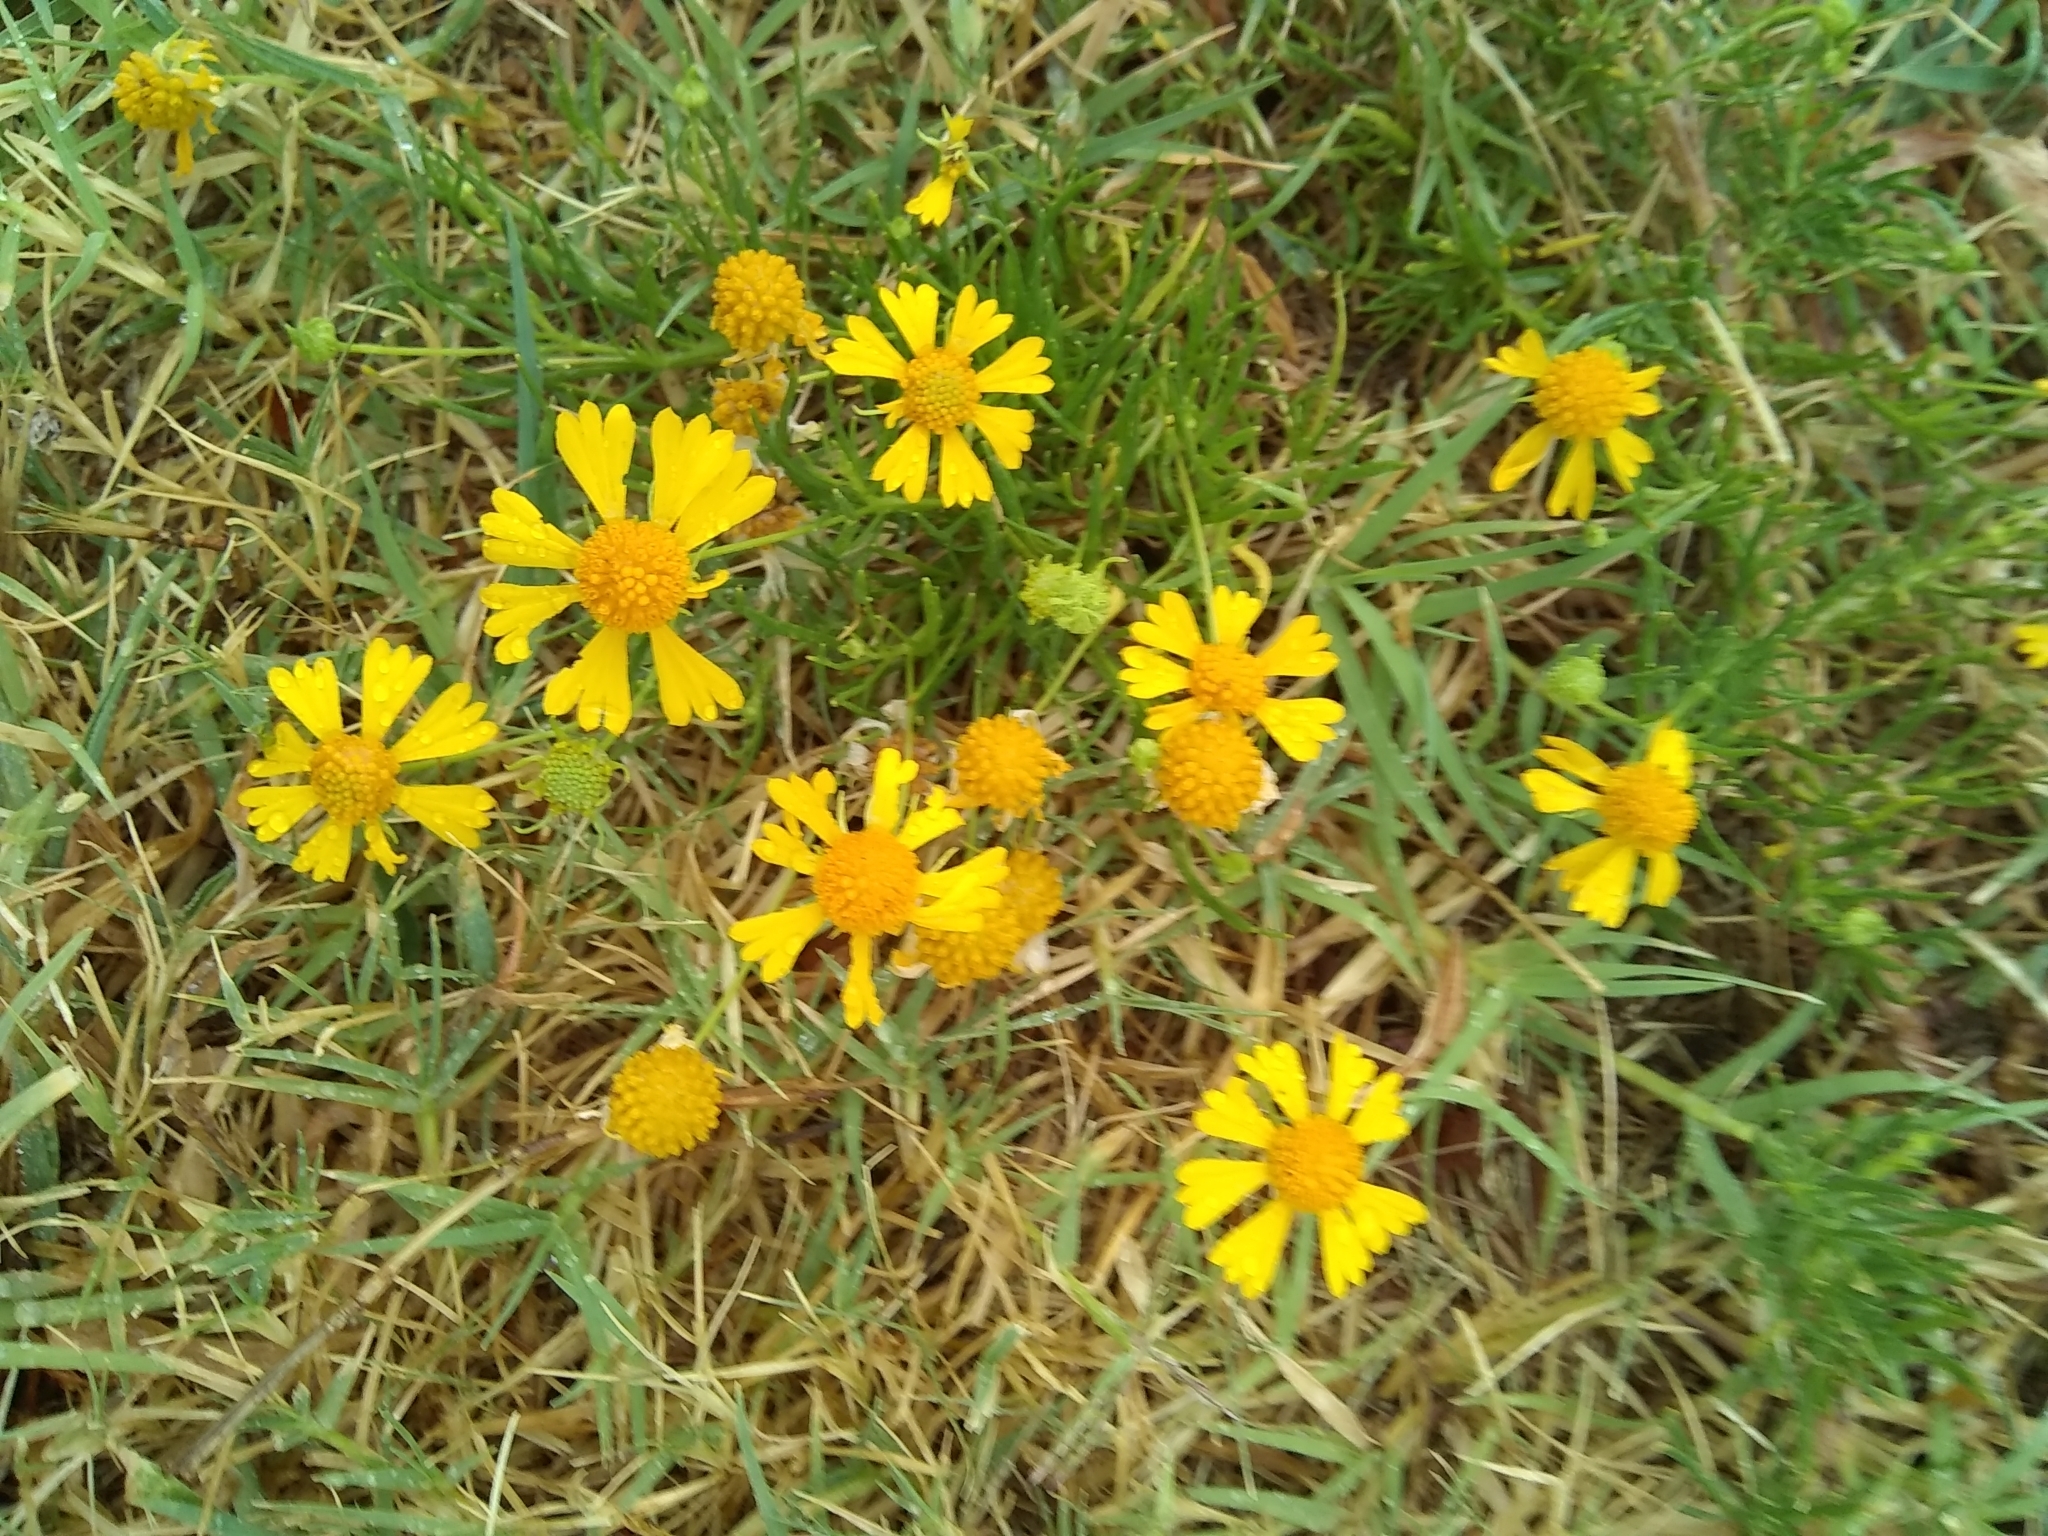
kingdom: Plantae
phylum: Tracheophyta
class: Magnoliopsida
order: Asterales
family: Asteraceae
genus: Helenium
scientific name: Helenium amarum
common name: Bitter sneezeweed
